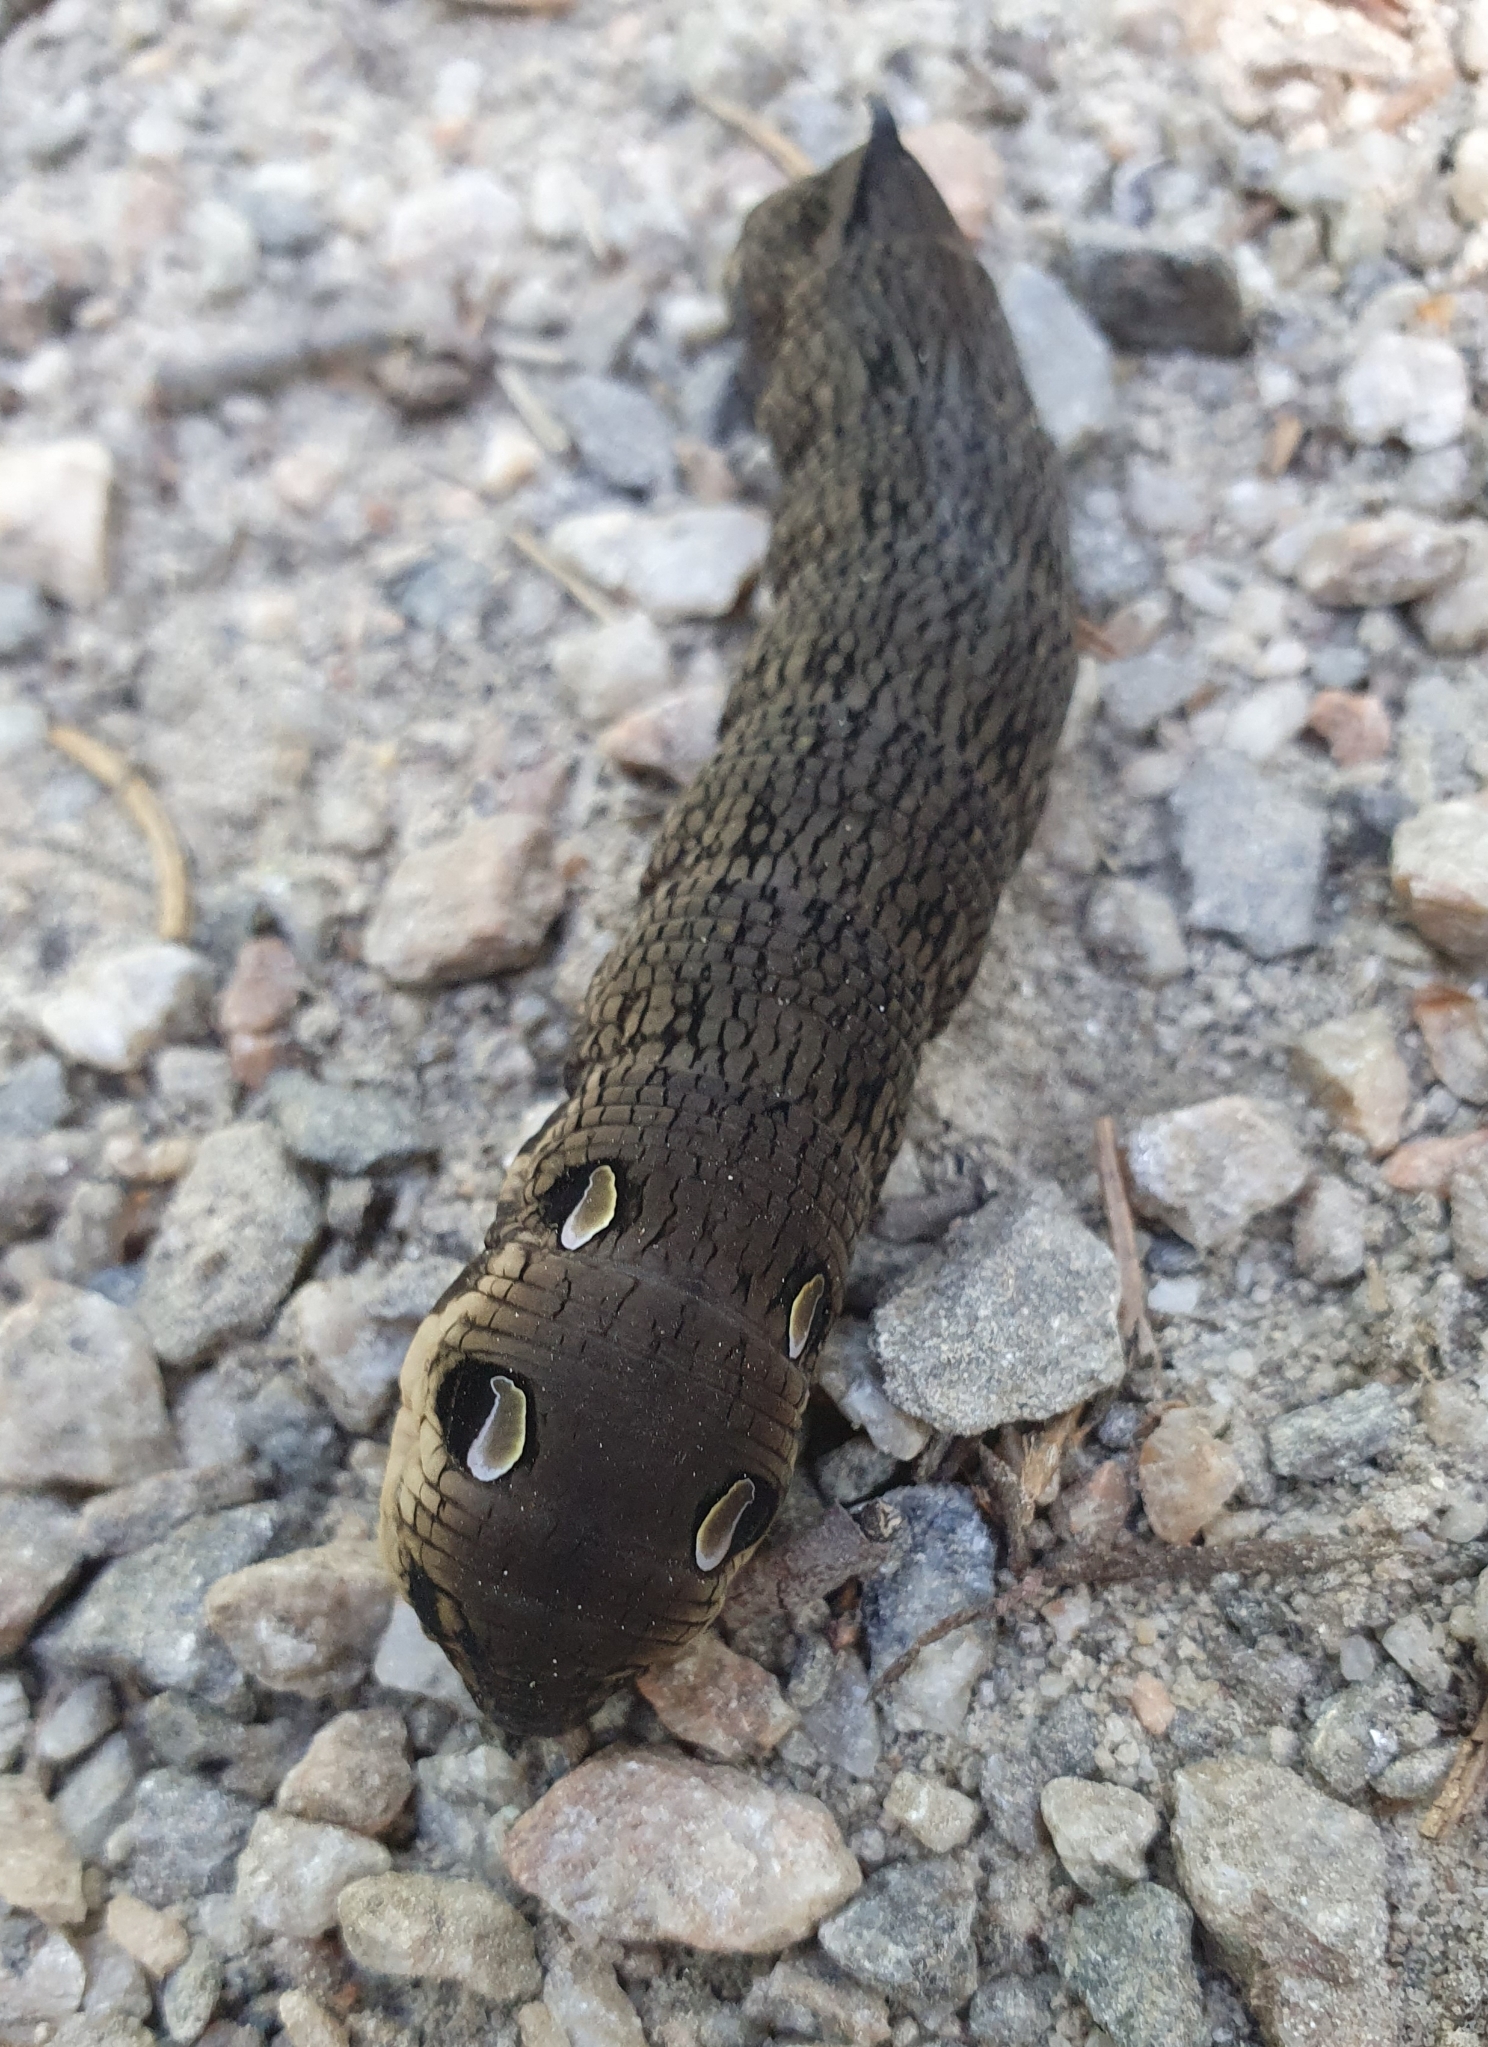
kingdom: Animalia
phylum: Arthropoda
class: Insecta
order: Lepidoptera
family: Sphingidae
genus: Deilephila
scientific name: Deilephila elpenor
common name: Elephant hawk-moth
